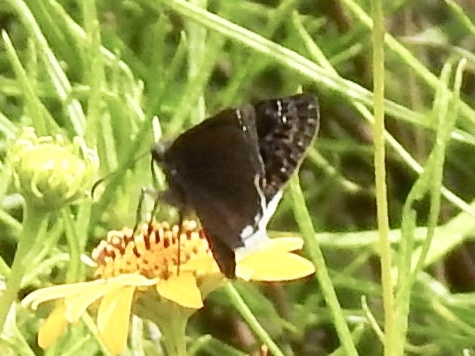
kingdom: Animalia
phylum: Arthropoda
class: Insecta
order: Lepidoptera
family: Hesperiidae
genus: Erynnis
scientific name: Erynnis funeralis
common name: Funereal duskywing
